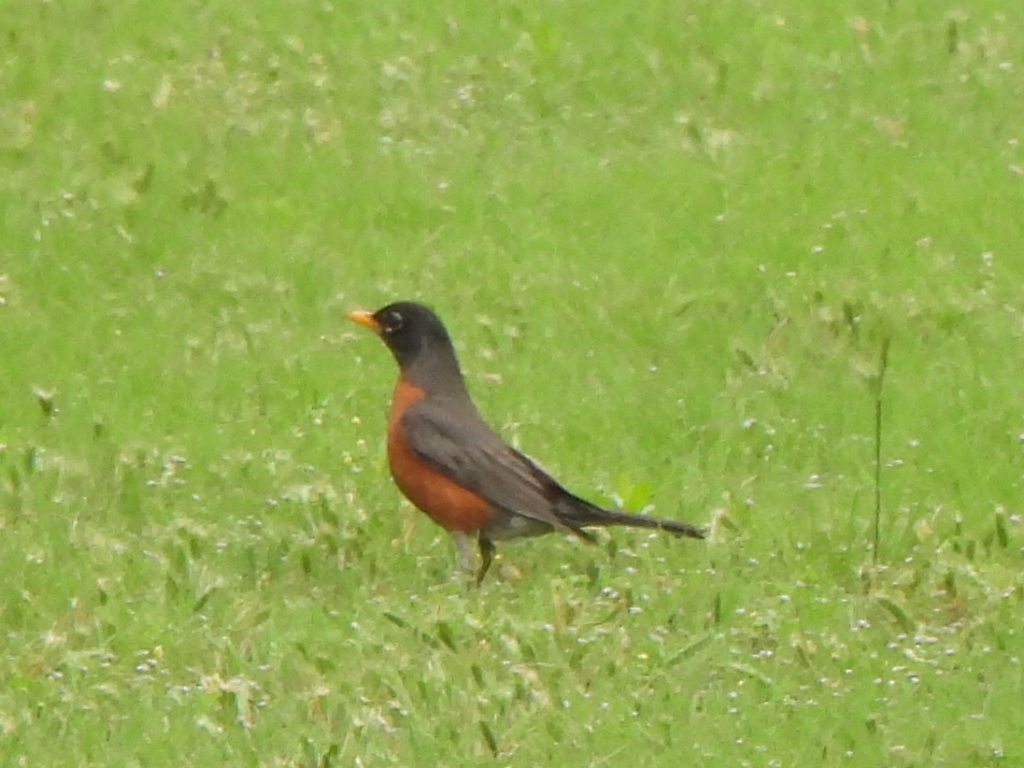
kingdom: Animalia
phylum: Chordata
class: Aves
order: Passeriformes
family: Turdidae
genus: Turdus
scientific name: Turdus migratorius
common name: American robin
